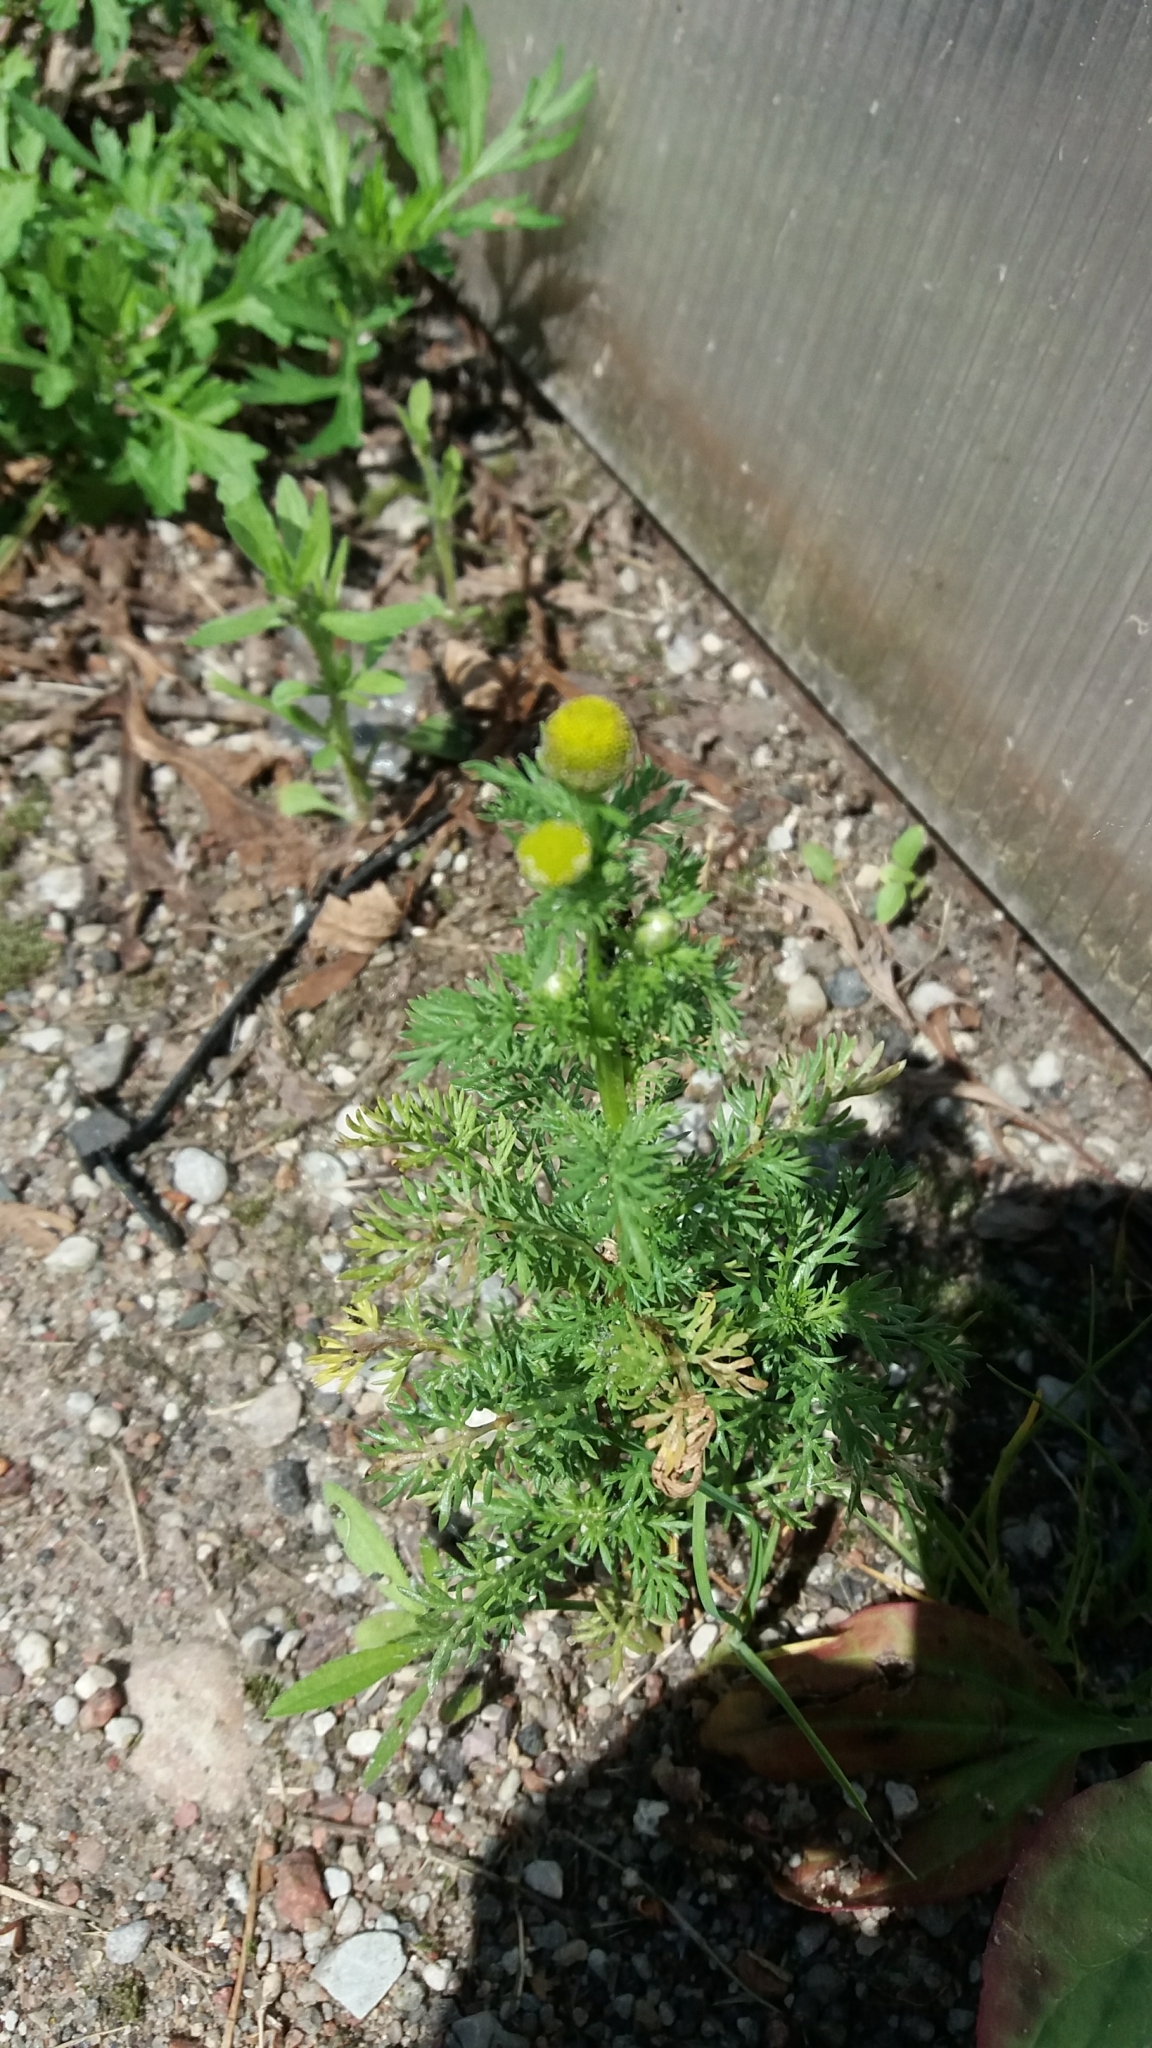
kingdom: Plantae
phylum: Tracheophyta
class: Magnoliopsida
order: Asterales
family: Asteraceae
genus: Matricaria
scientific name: Matricaria discoidea
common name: Disc mayweed
